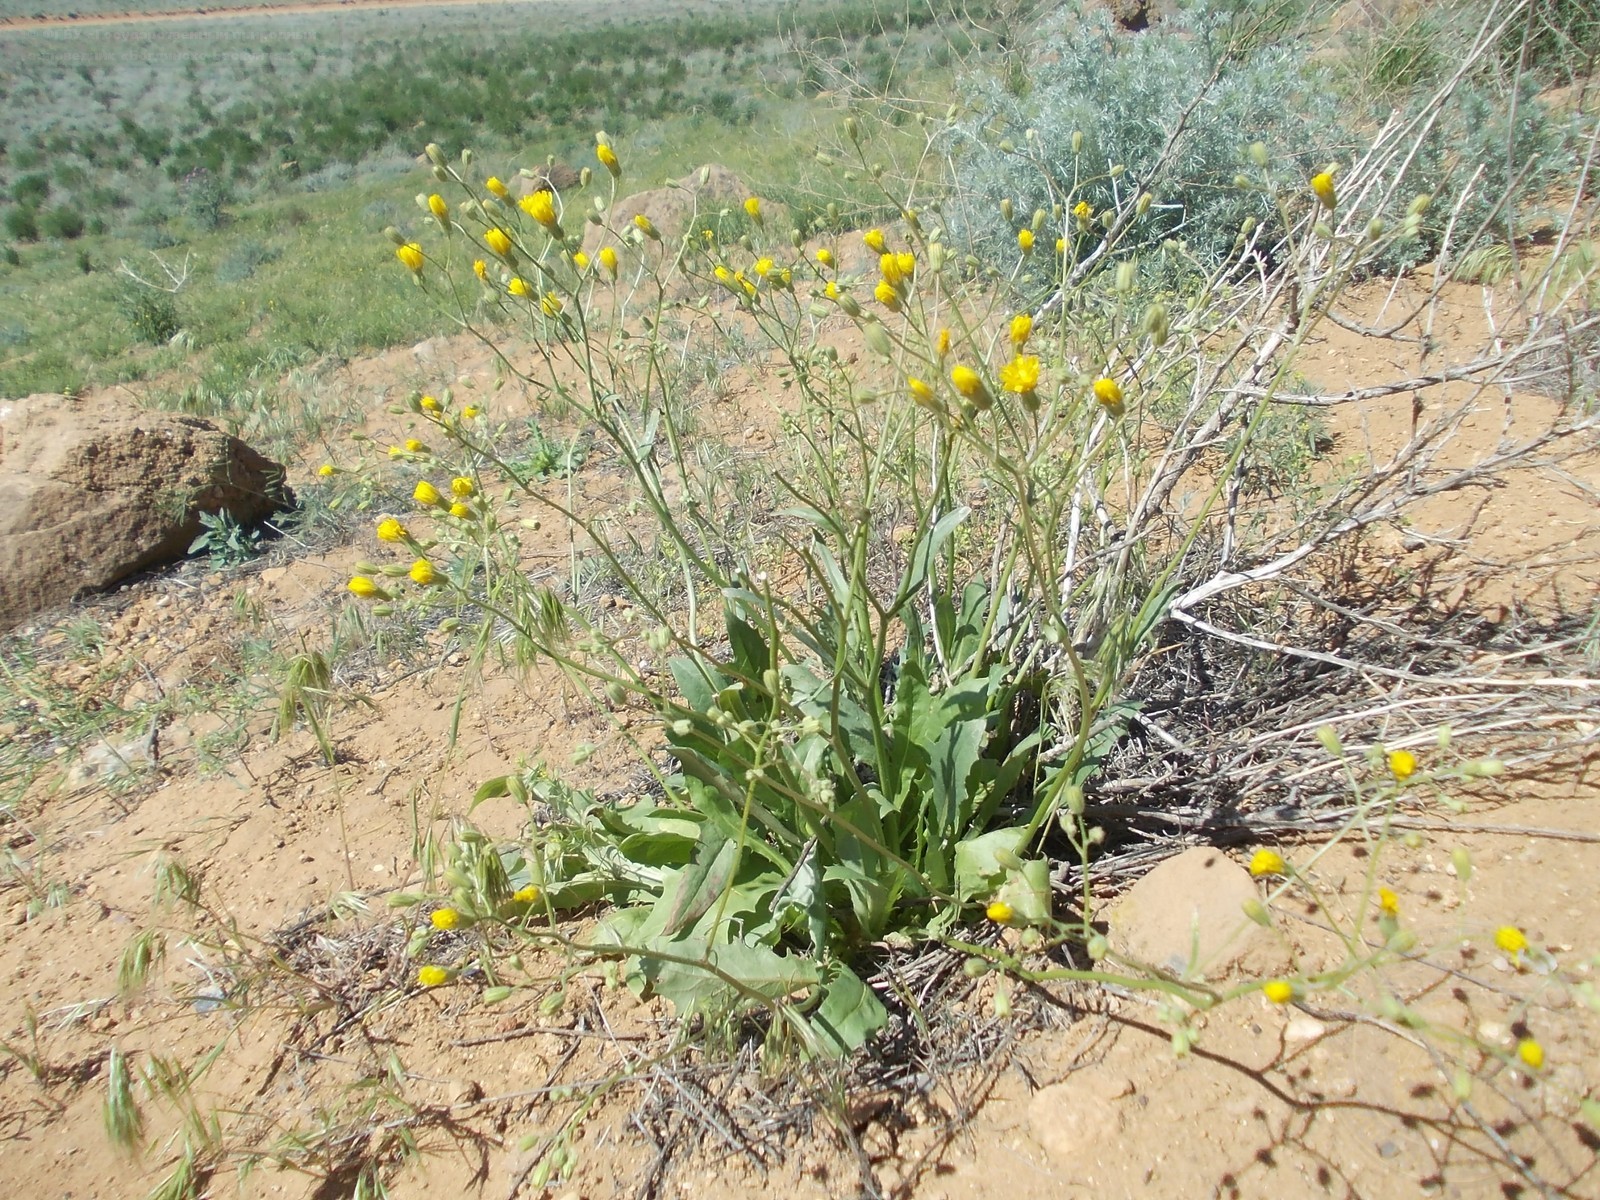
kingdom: Plantae
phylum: Tracheophyta
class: Magnoliopsida
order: Asterales
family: Asteraceae
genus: Crepis
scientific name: Crepis sancta
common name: Hawk's-beard
